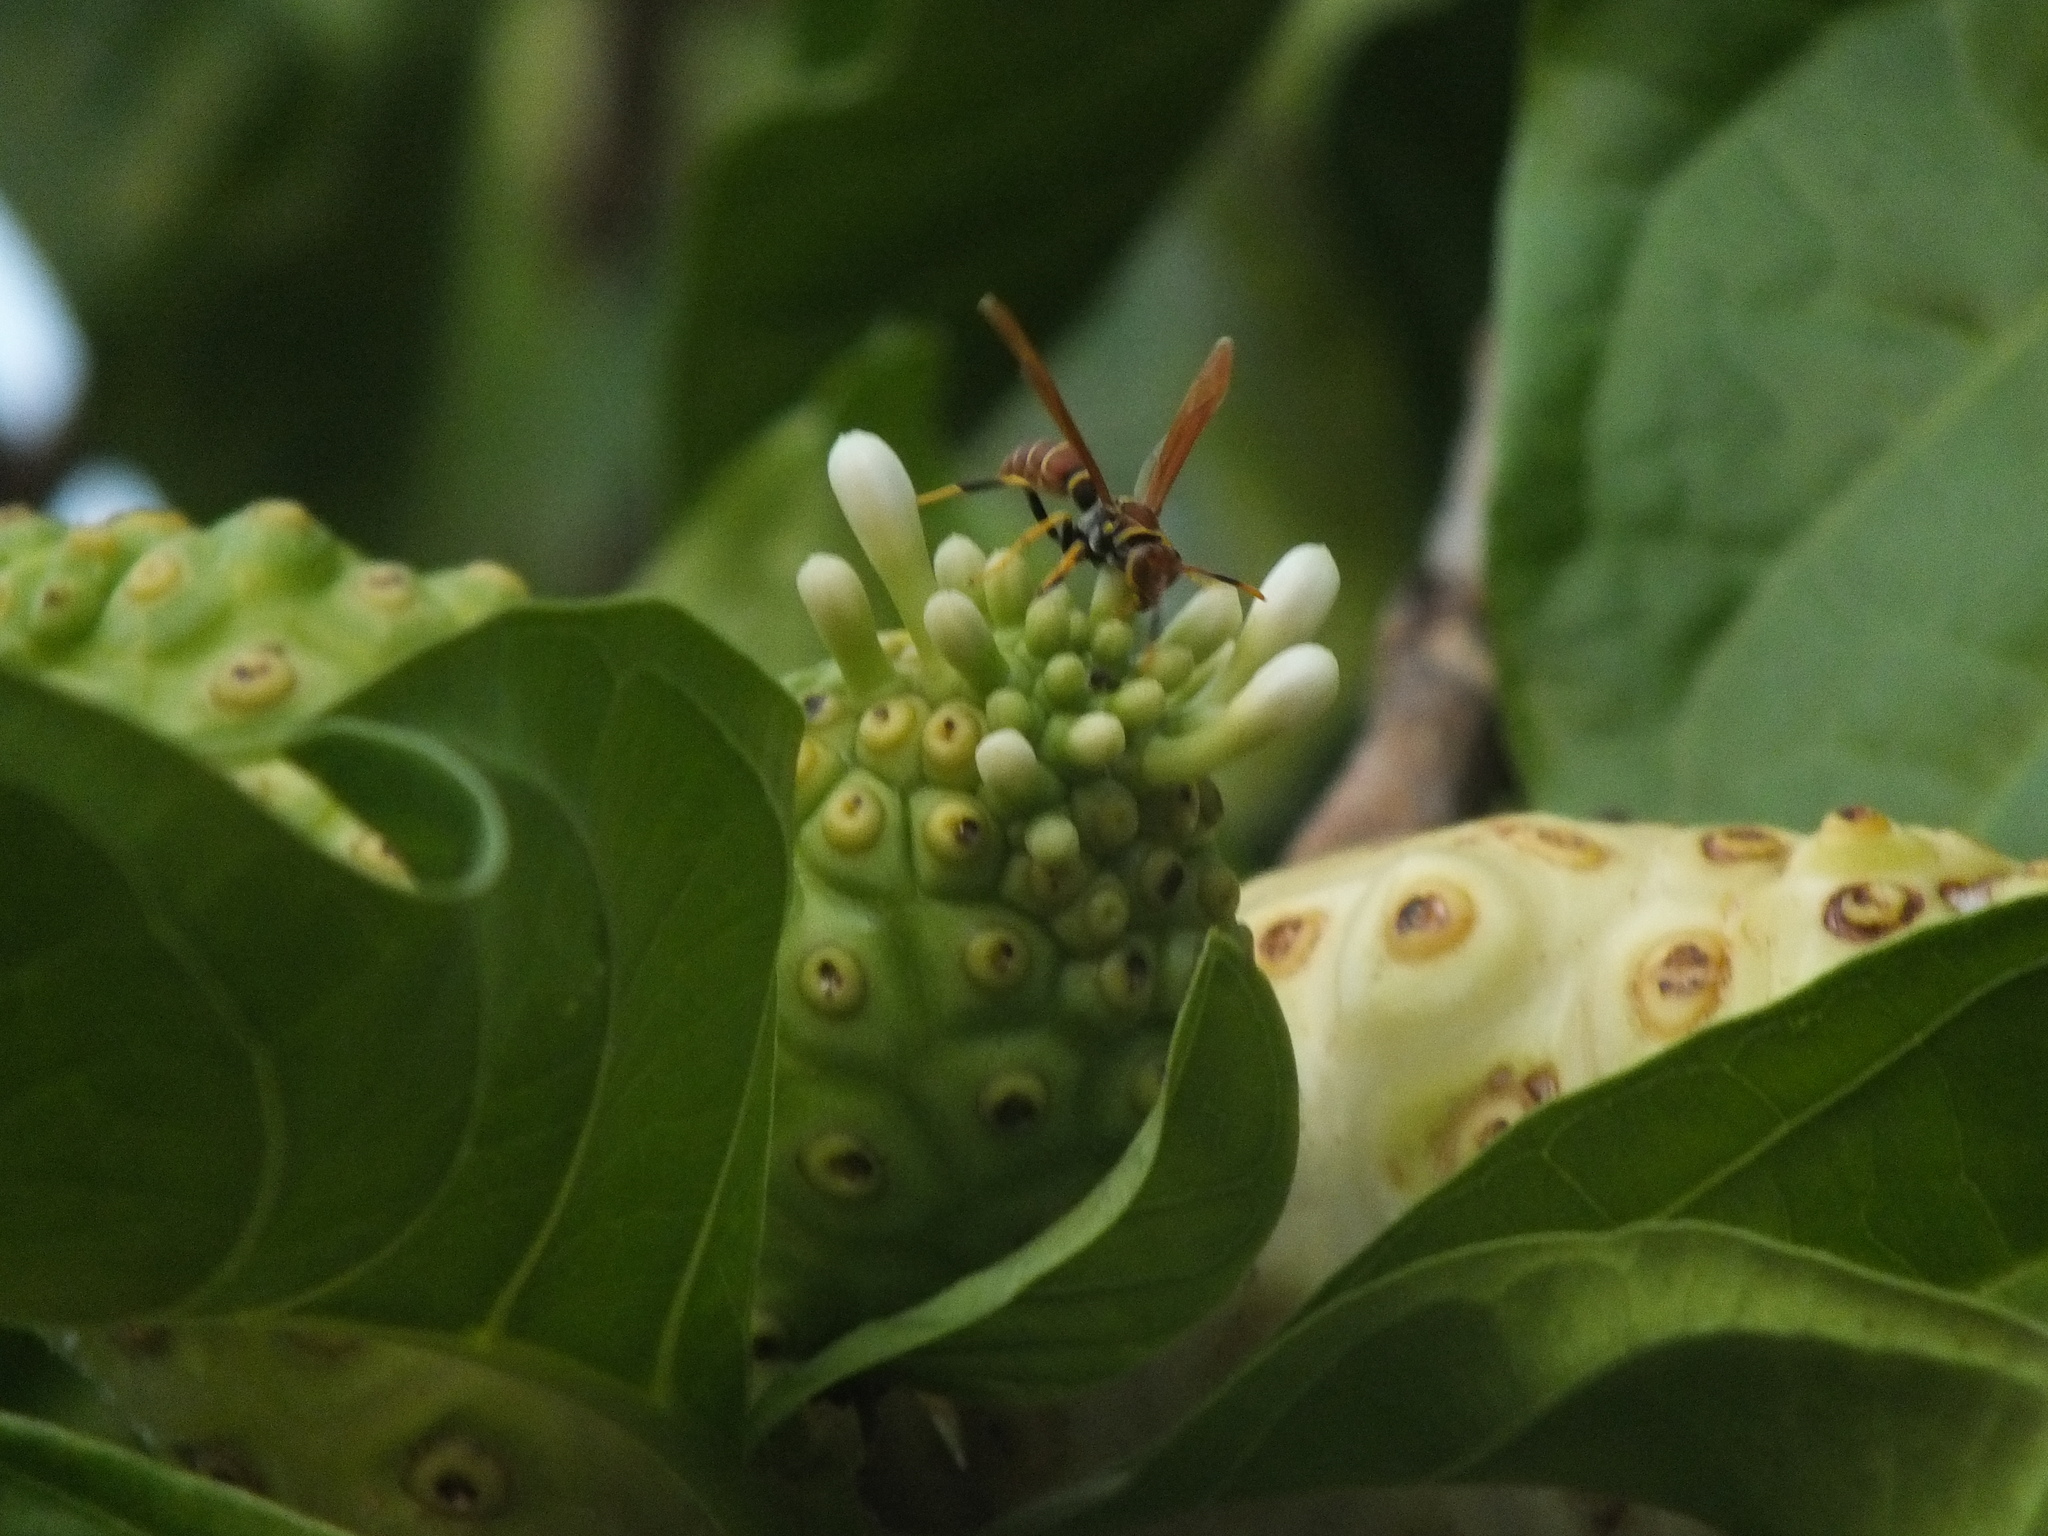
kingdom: Animalia
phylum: Arthropoda
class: Insecta
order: Hymenoptera
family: Eumenidae
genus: Polistes
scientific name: Polistes crinitus
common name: Jack spaniard
